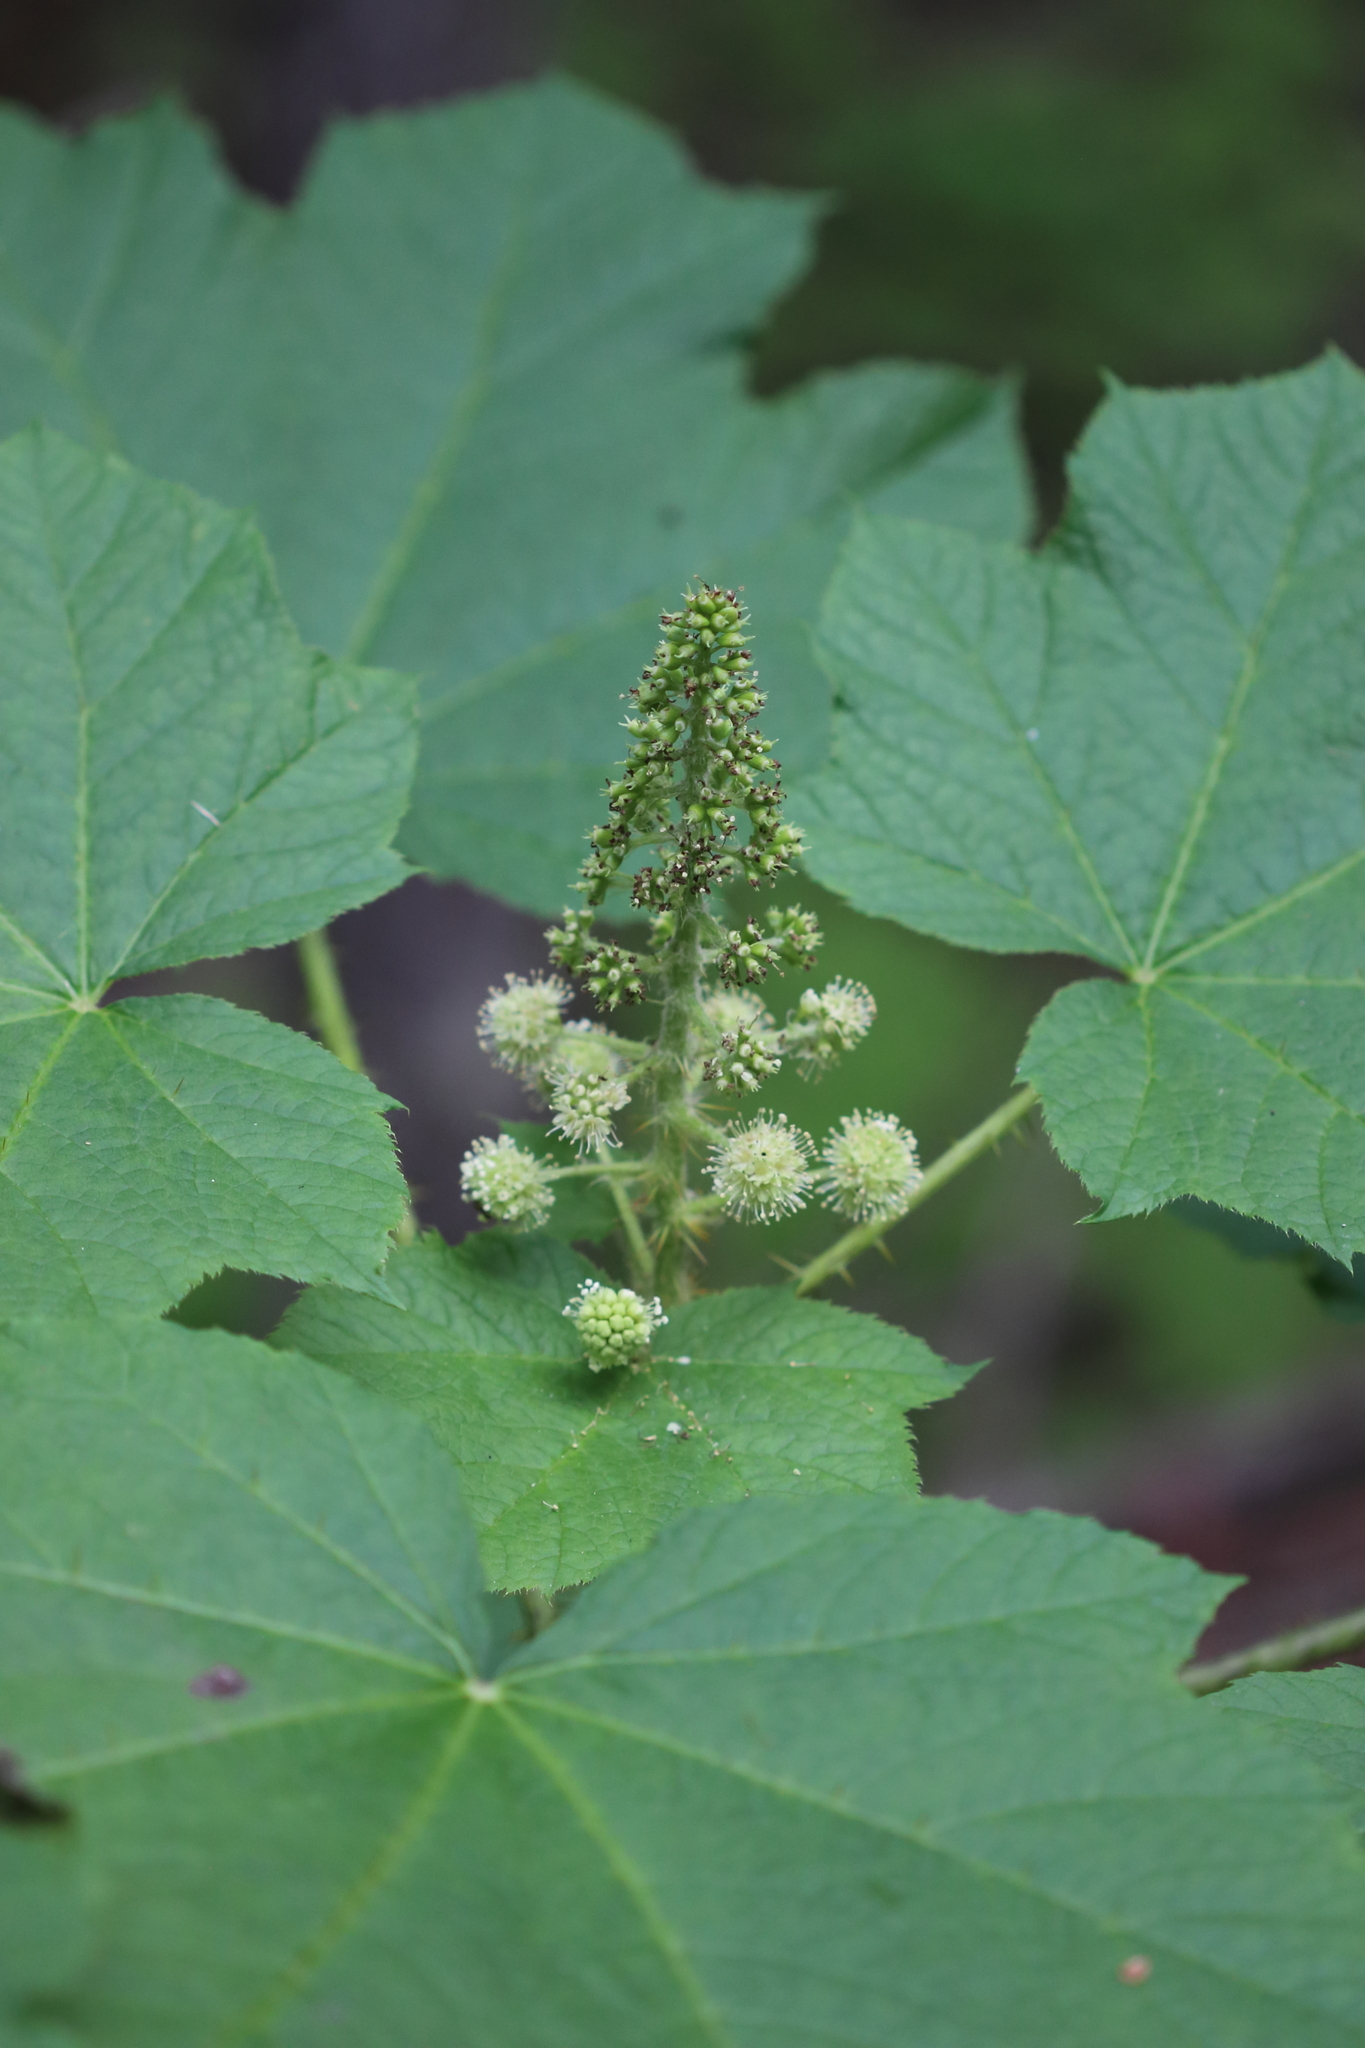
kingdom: Plantae
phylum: Tracheophyta
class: Magnoliopsida
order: Apiales
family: Araliaceae
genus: Oplopanax
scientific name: Oplopanax horridus
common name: Devil's walking-stick
